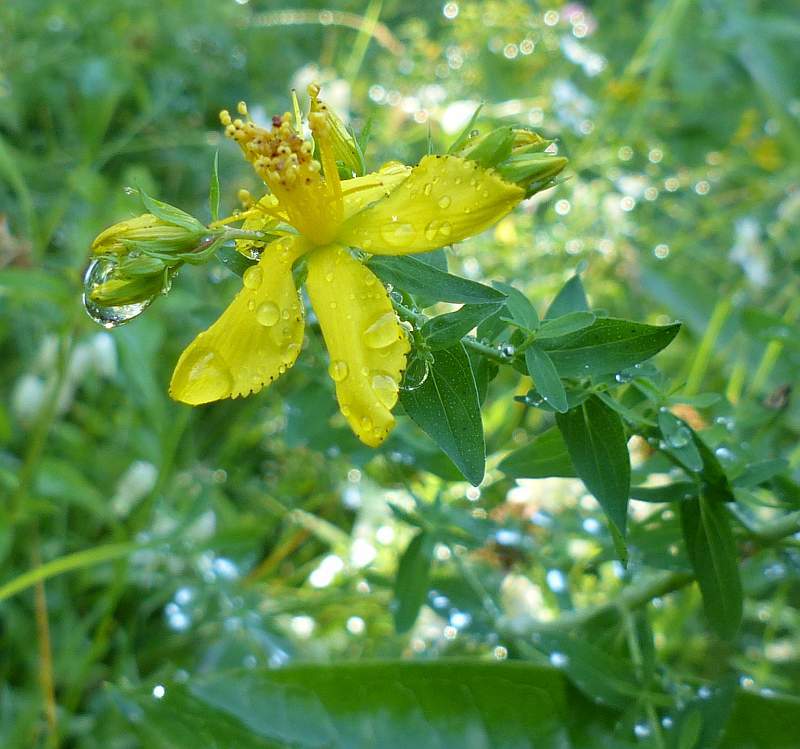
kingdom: Plantae
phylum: Tracheophyta
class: Magnoliopsida
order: Malpighiales
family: Hypericaceae
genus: Hypericum
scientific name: Hypericum perforatum
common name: Common st. johnswort
